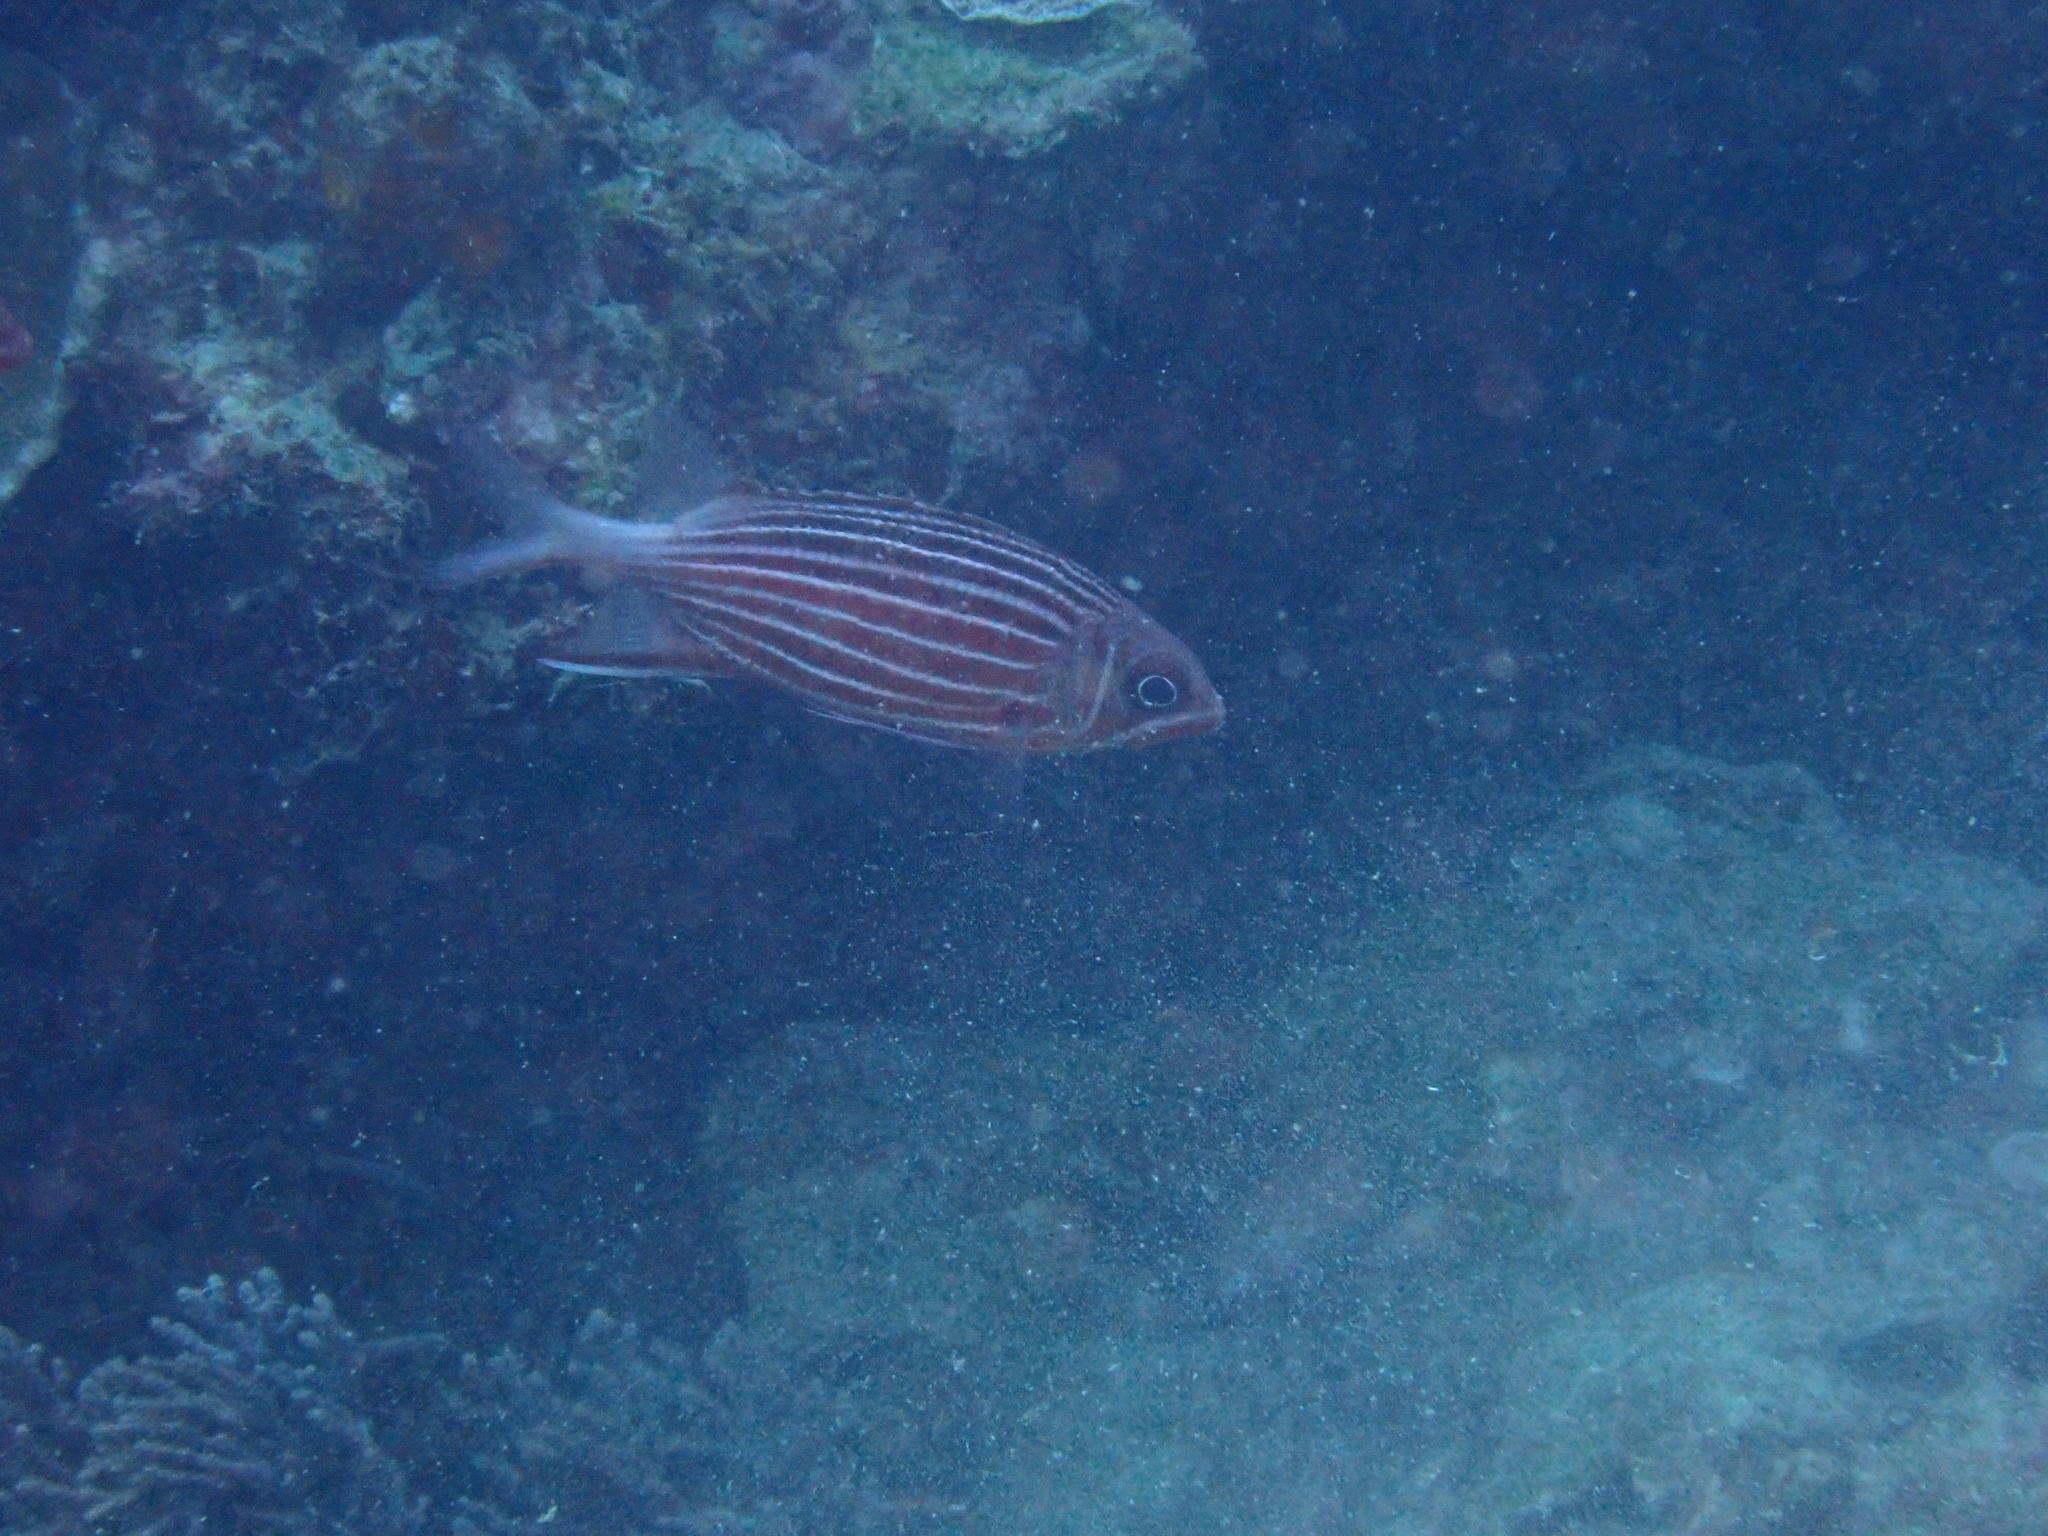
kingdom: Animalia
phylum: Chordata
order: Beryciformes
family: Holocentridae
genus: Sargocentron
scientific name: Sargocentron diadema
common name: Crown squirrelfish
